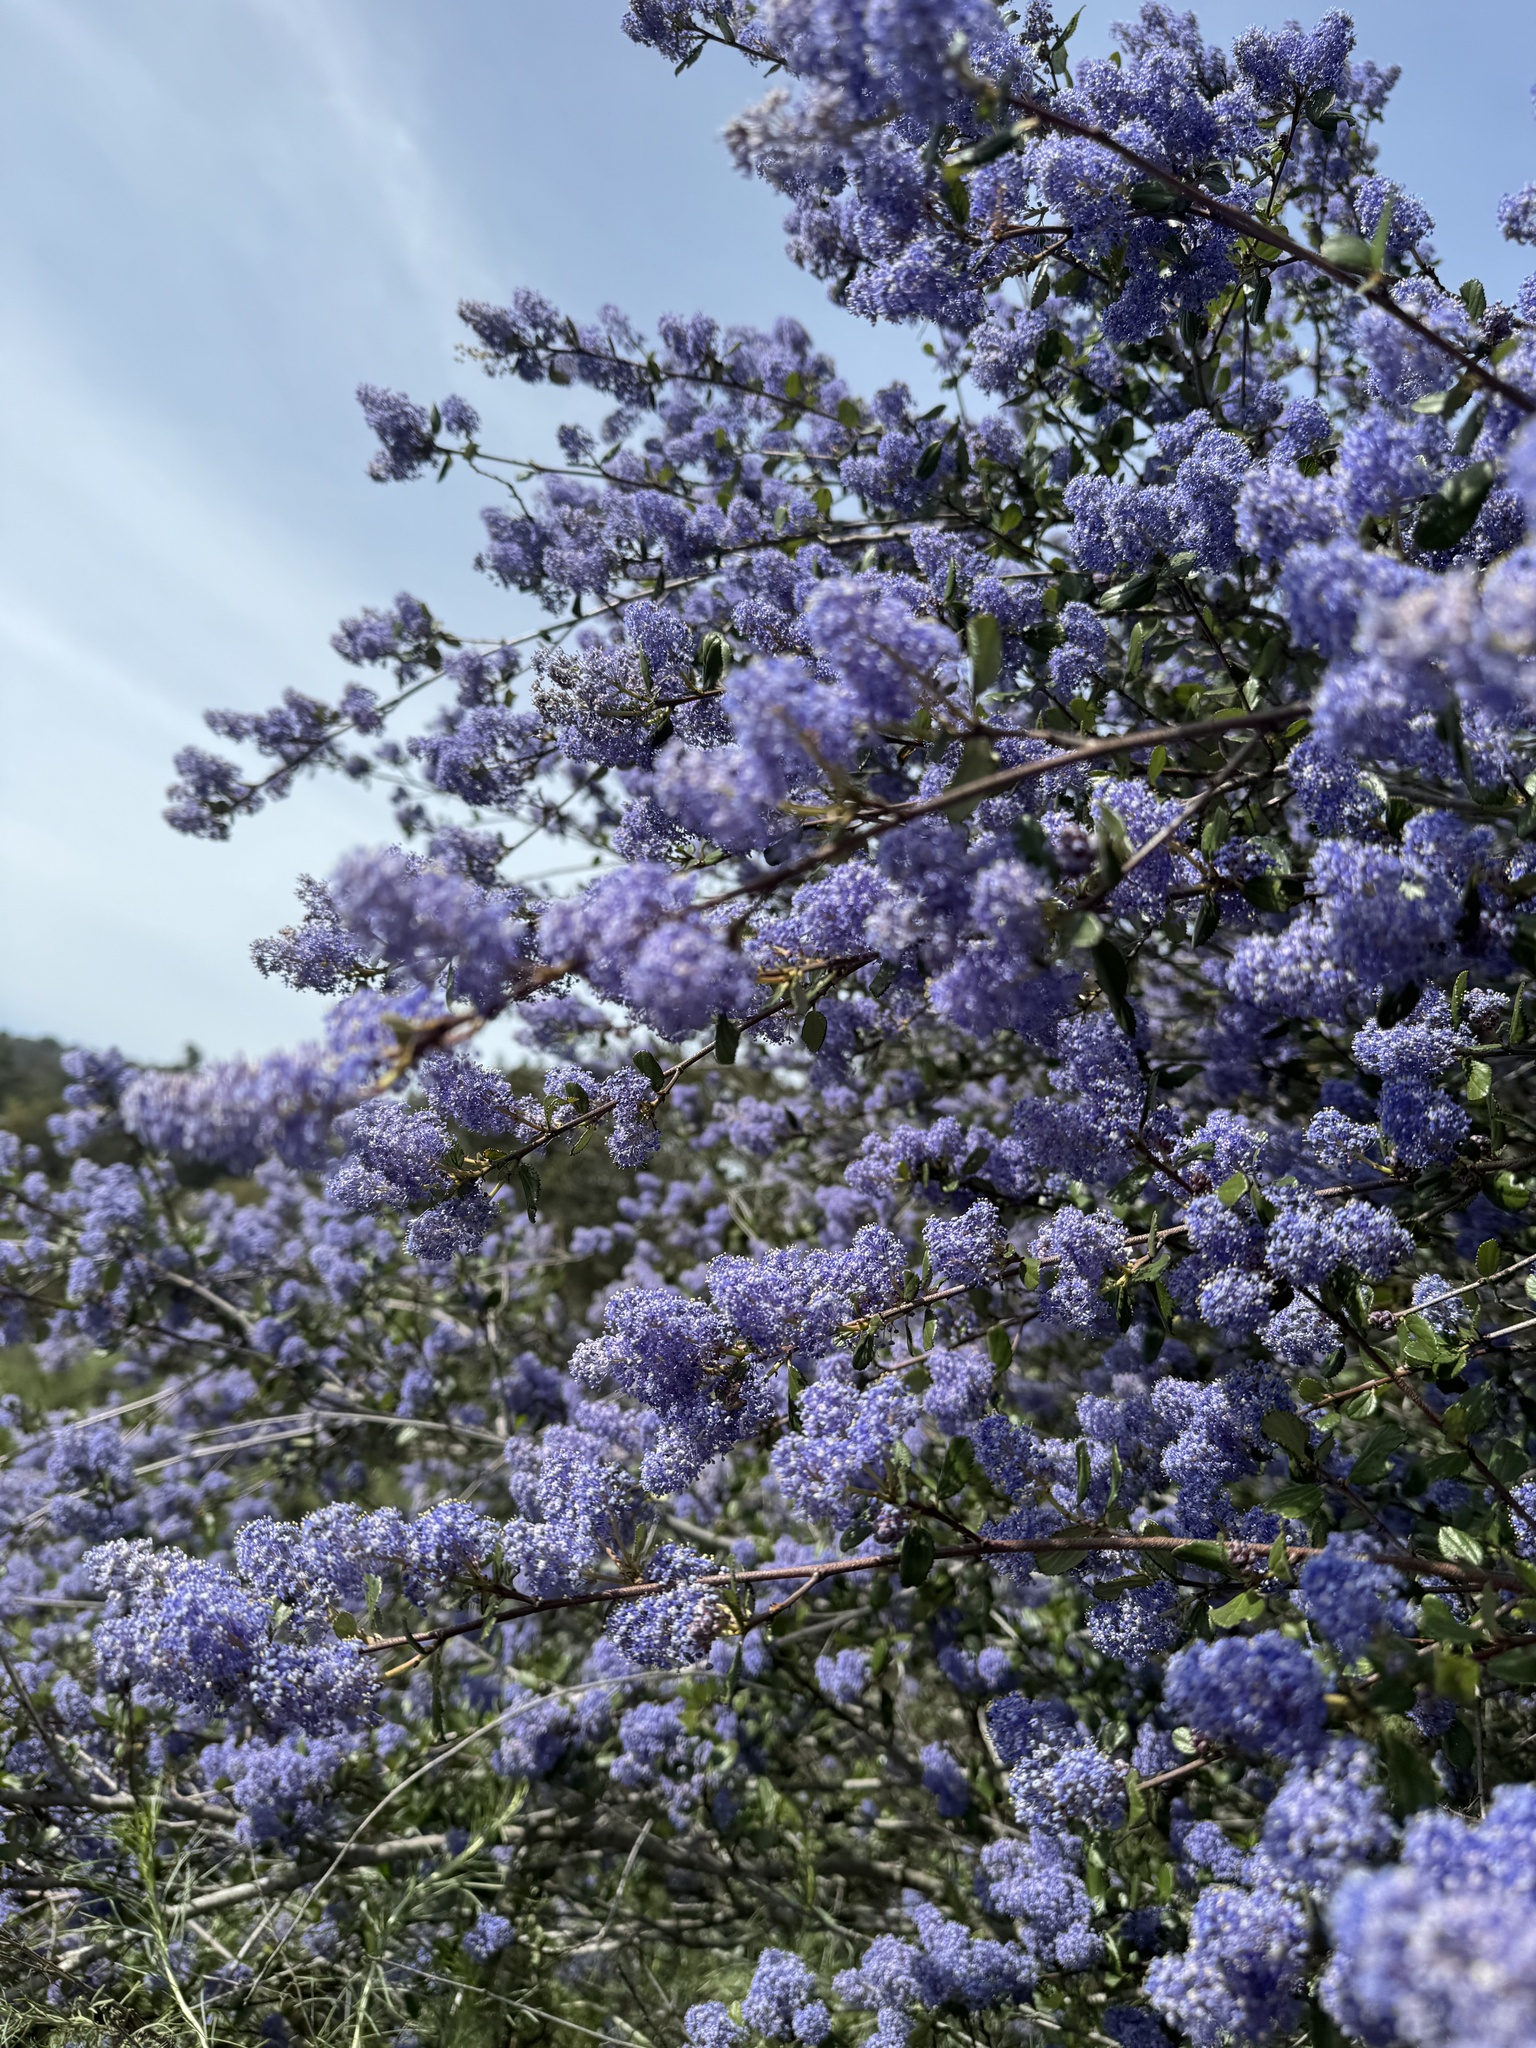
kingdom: Plantae
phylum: Tracheophyta
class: Magnoliopsida
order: Rosales
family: Rhamnaceae
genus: Ceanothus
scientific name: Ceanothus tomentosus
